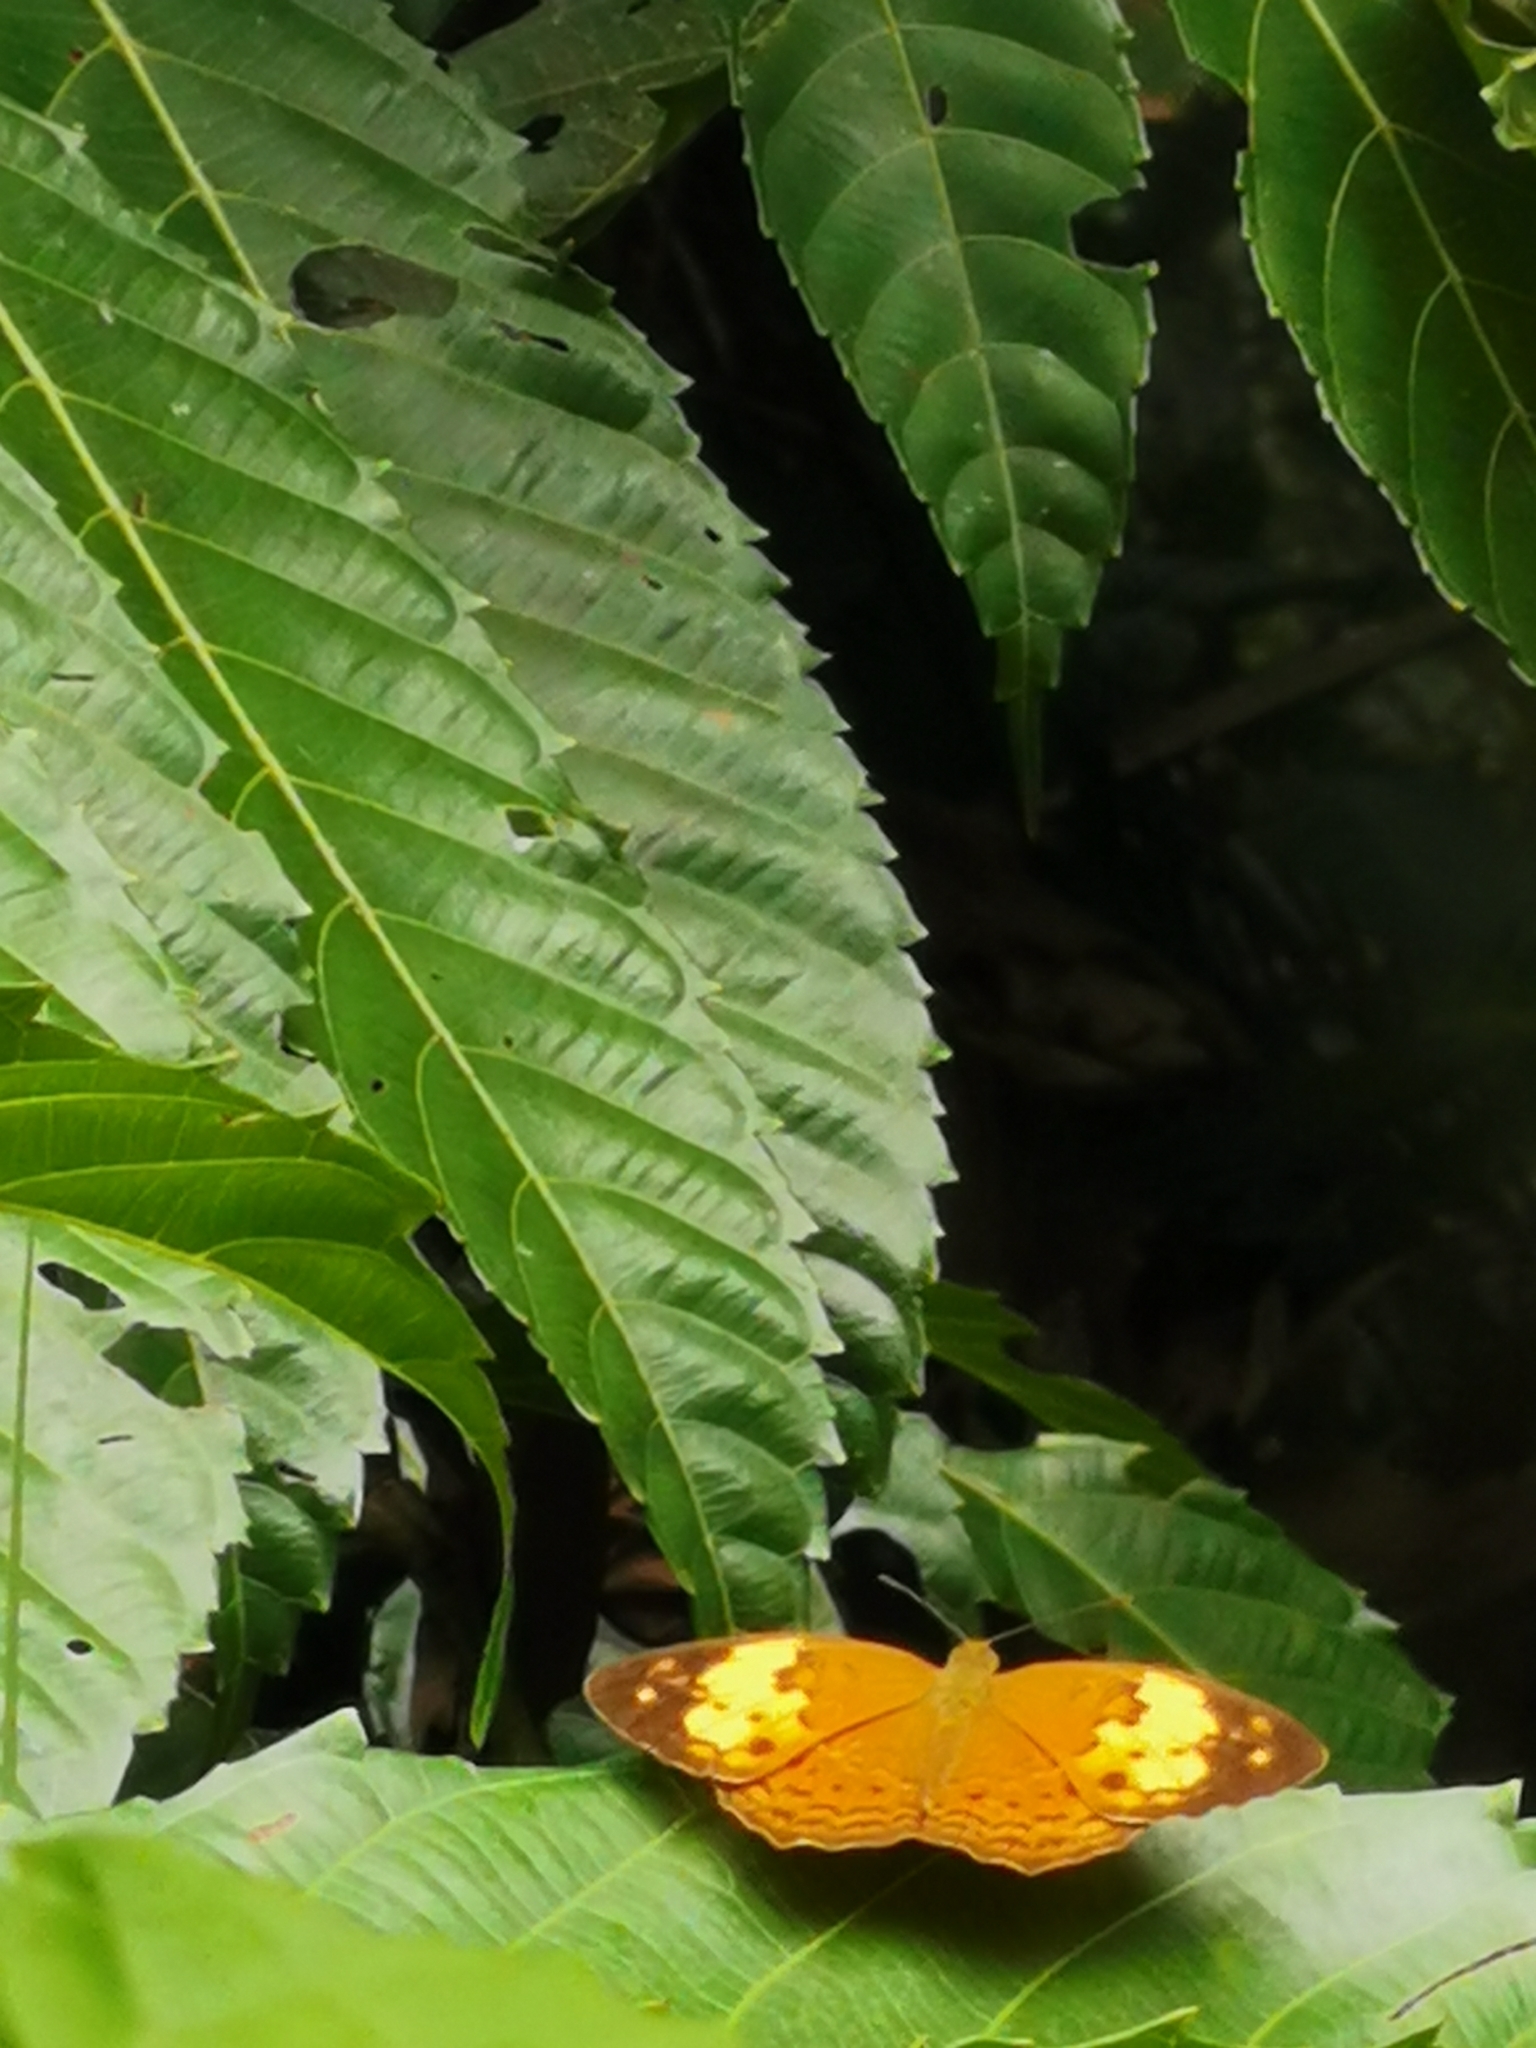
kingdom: Animalia
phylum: Arthropoda
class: Insecta
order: Lepidoptera
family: Nymphalidae
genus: Cupha
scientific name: Cupha erymanthis
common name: Rustic
